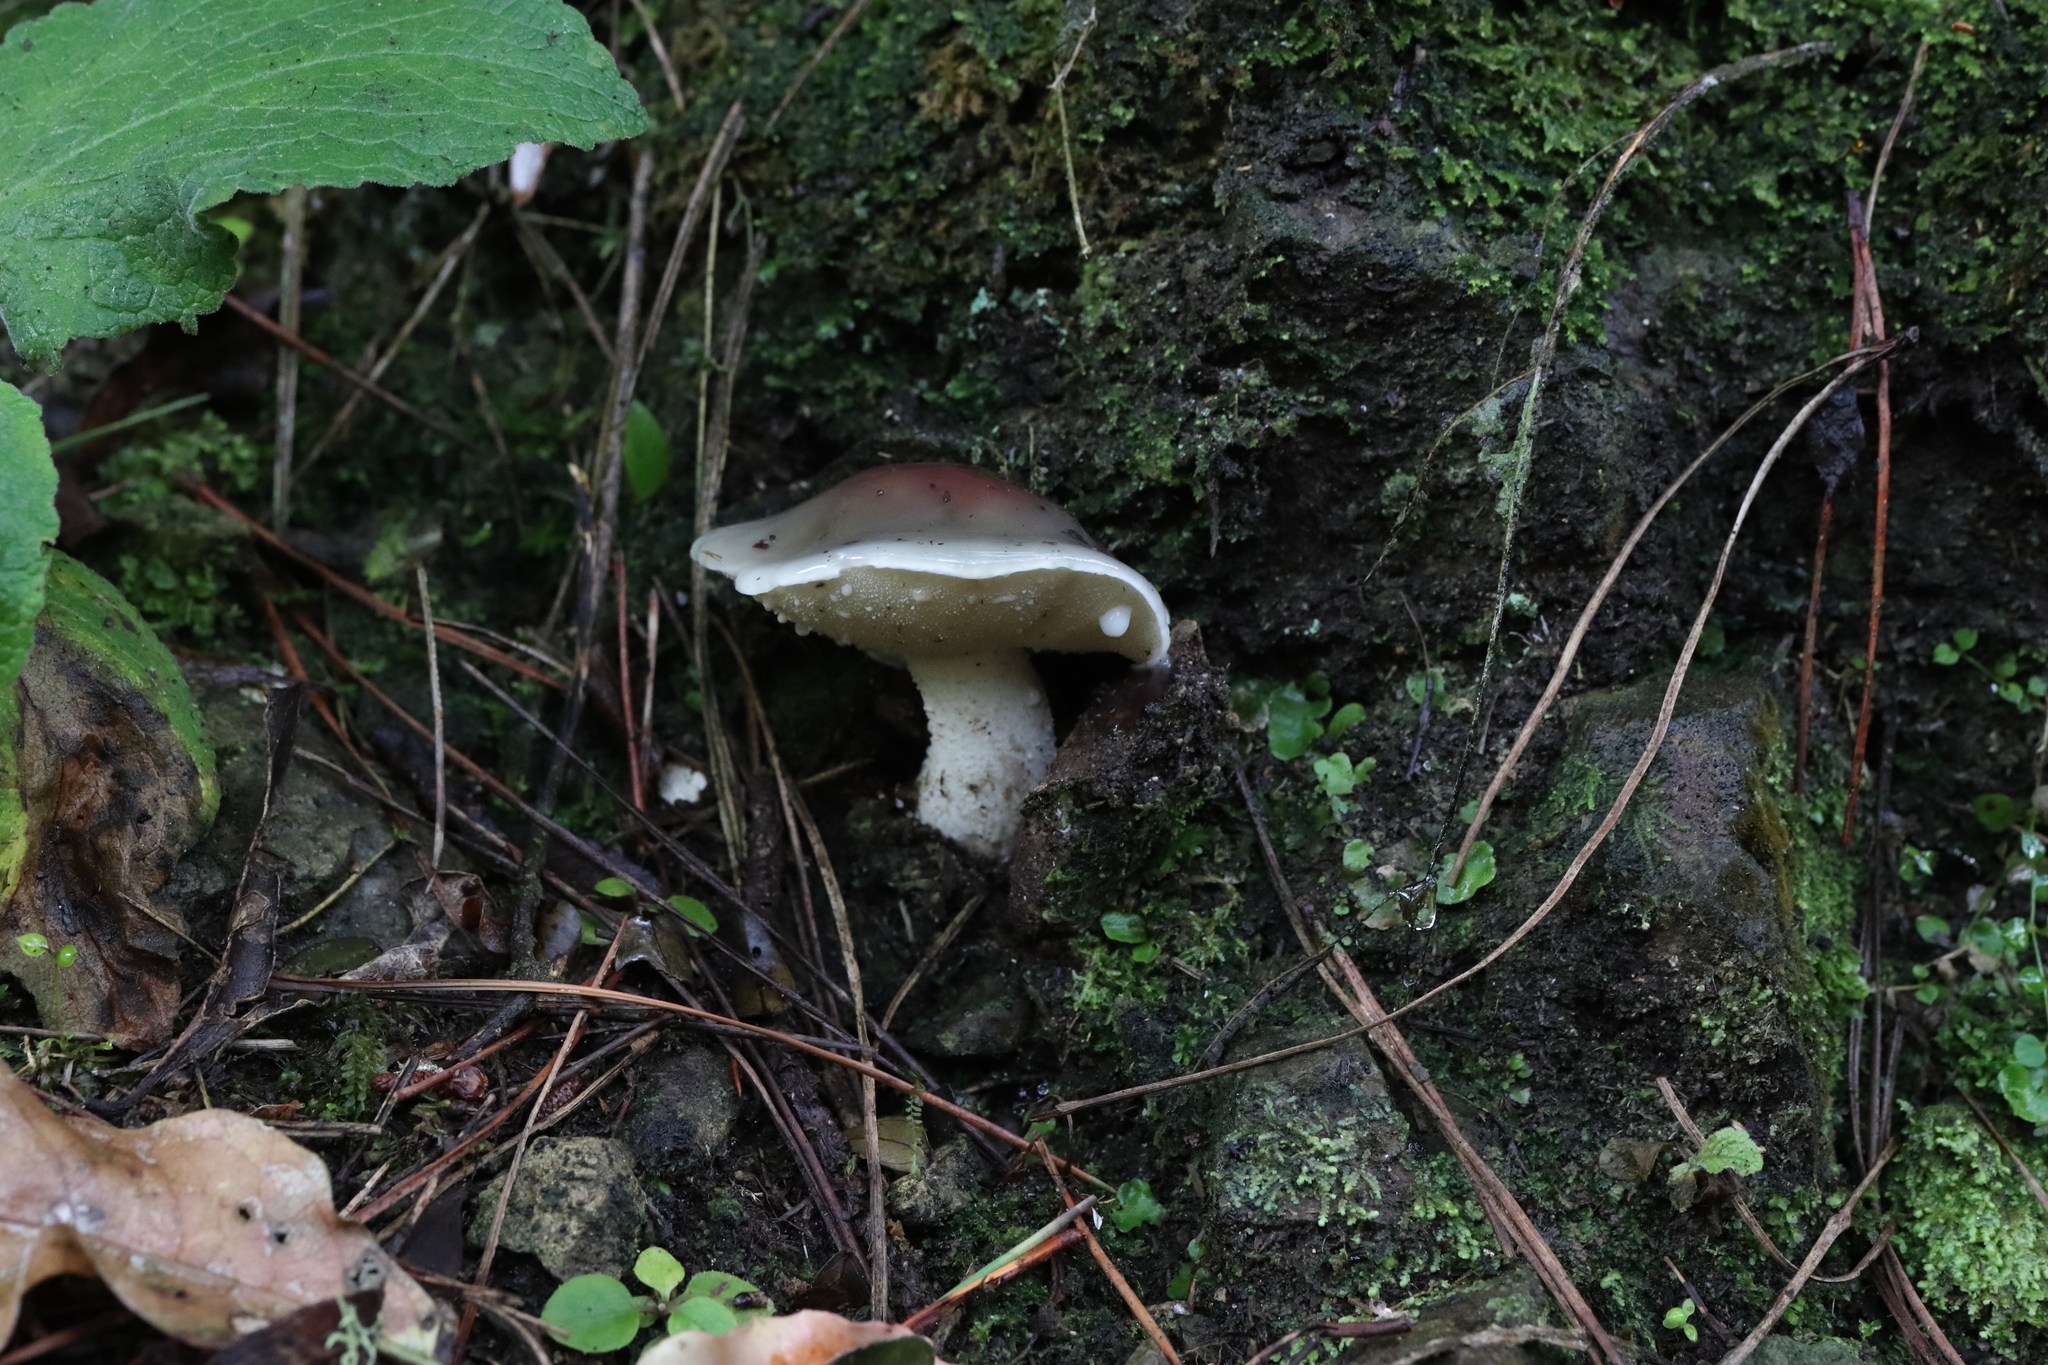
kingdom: Fungi
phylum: Basidiomycota
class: Agaricomycetes
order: Boletales
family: Suillaceae
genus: Suillus
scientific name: Suillus pungens
